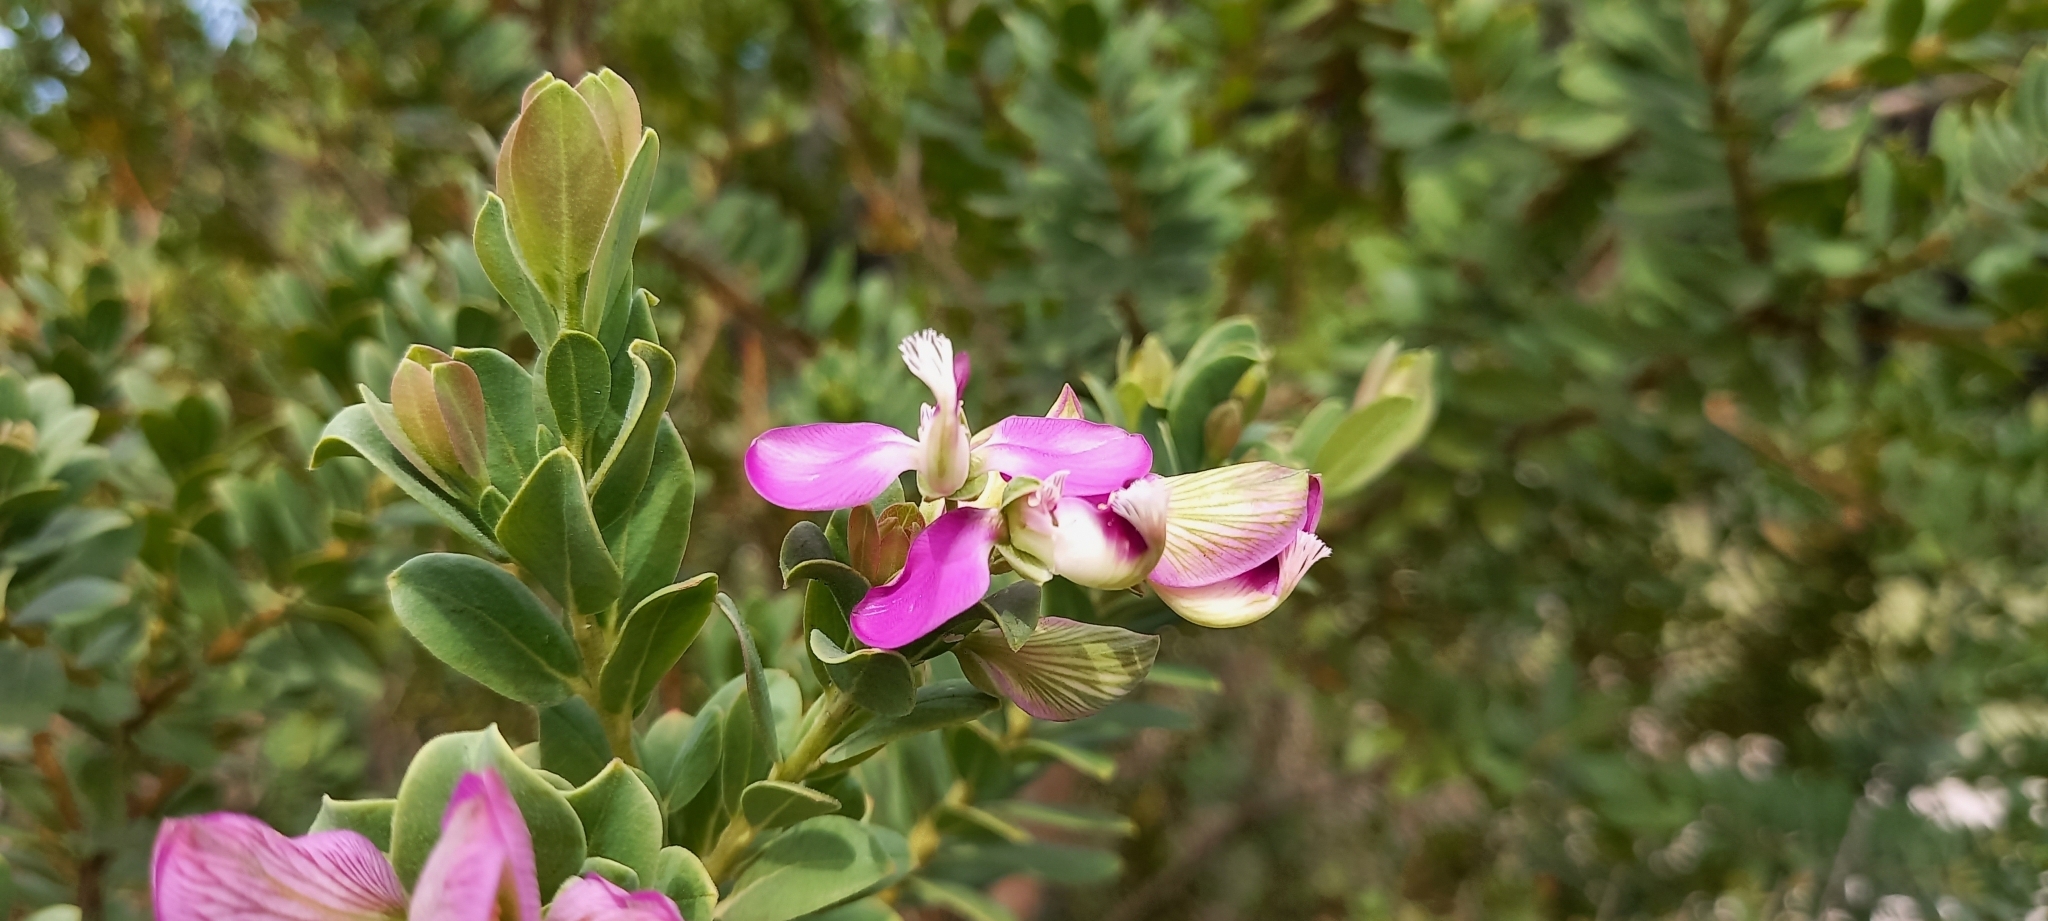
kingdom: Plantae
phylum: Tracheophyta
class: Magnoliopsida
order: Fabales
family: Polygalaceae
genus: Polygala
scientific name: Polygala myrtifolia
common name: Myrtle-leaf milkwort
